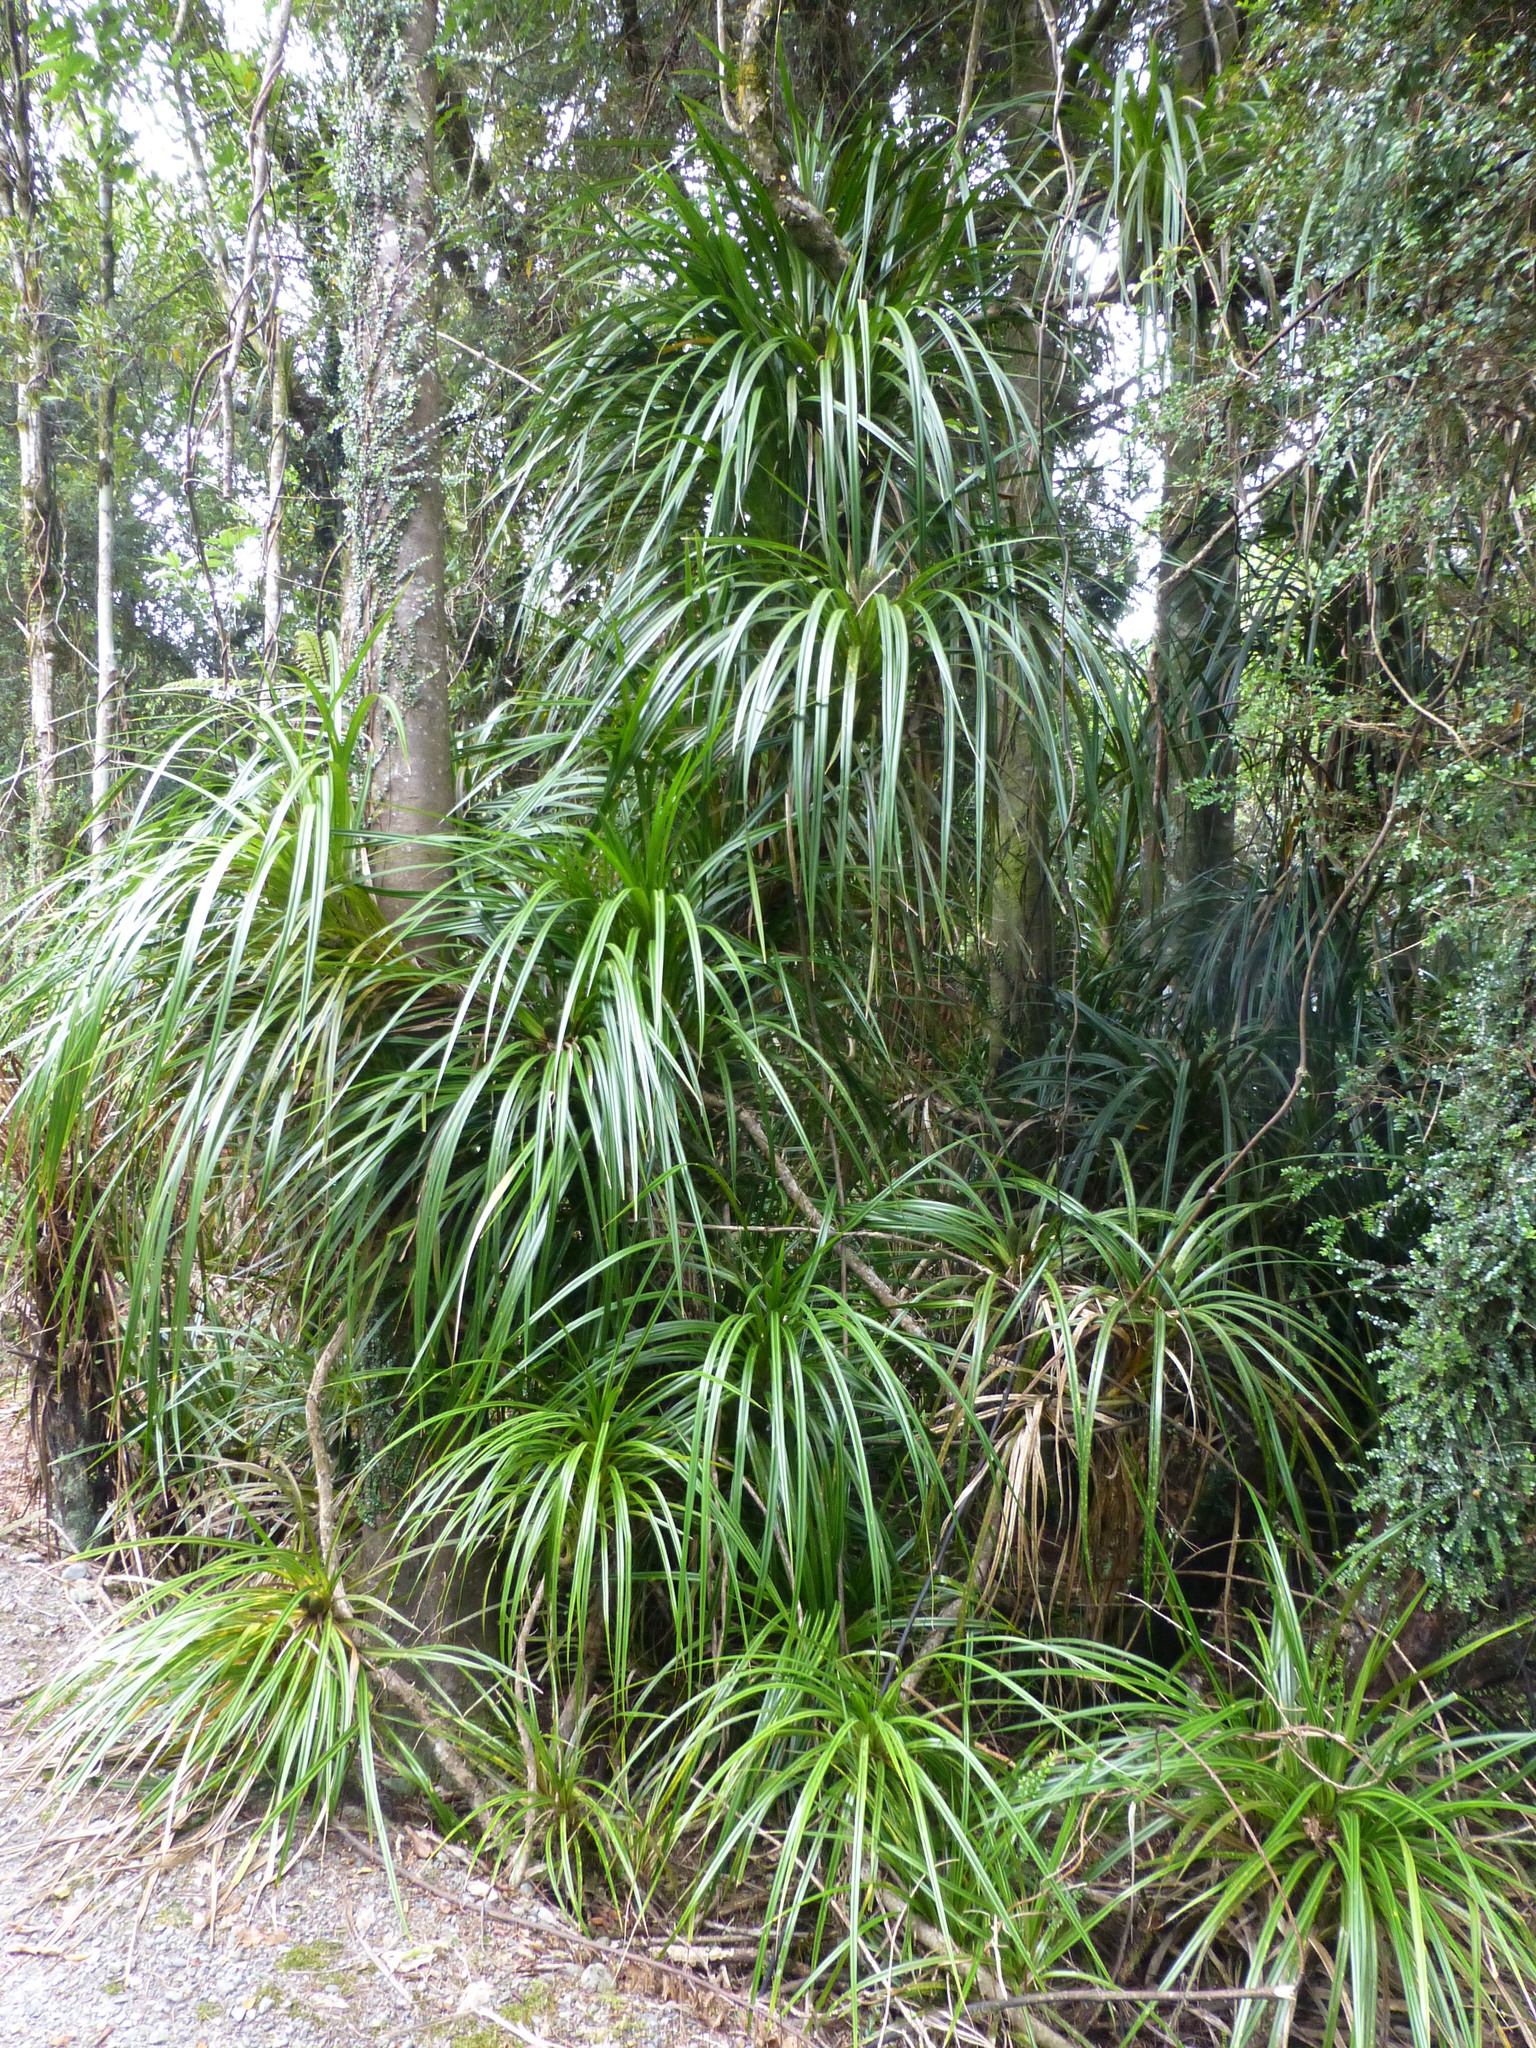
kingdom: Plantae
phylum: Tracheophyta
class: Liliopsida
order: Pandanales
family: Pandanaceae
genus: Freycinetia
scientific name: Freycinetia banksii
